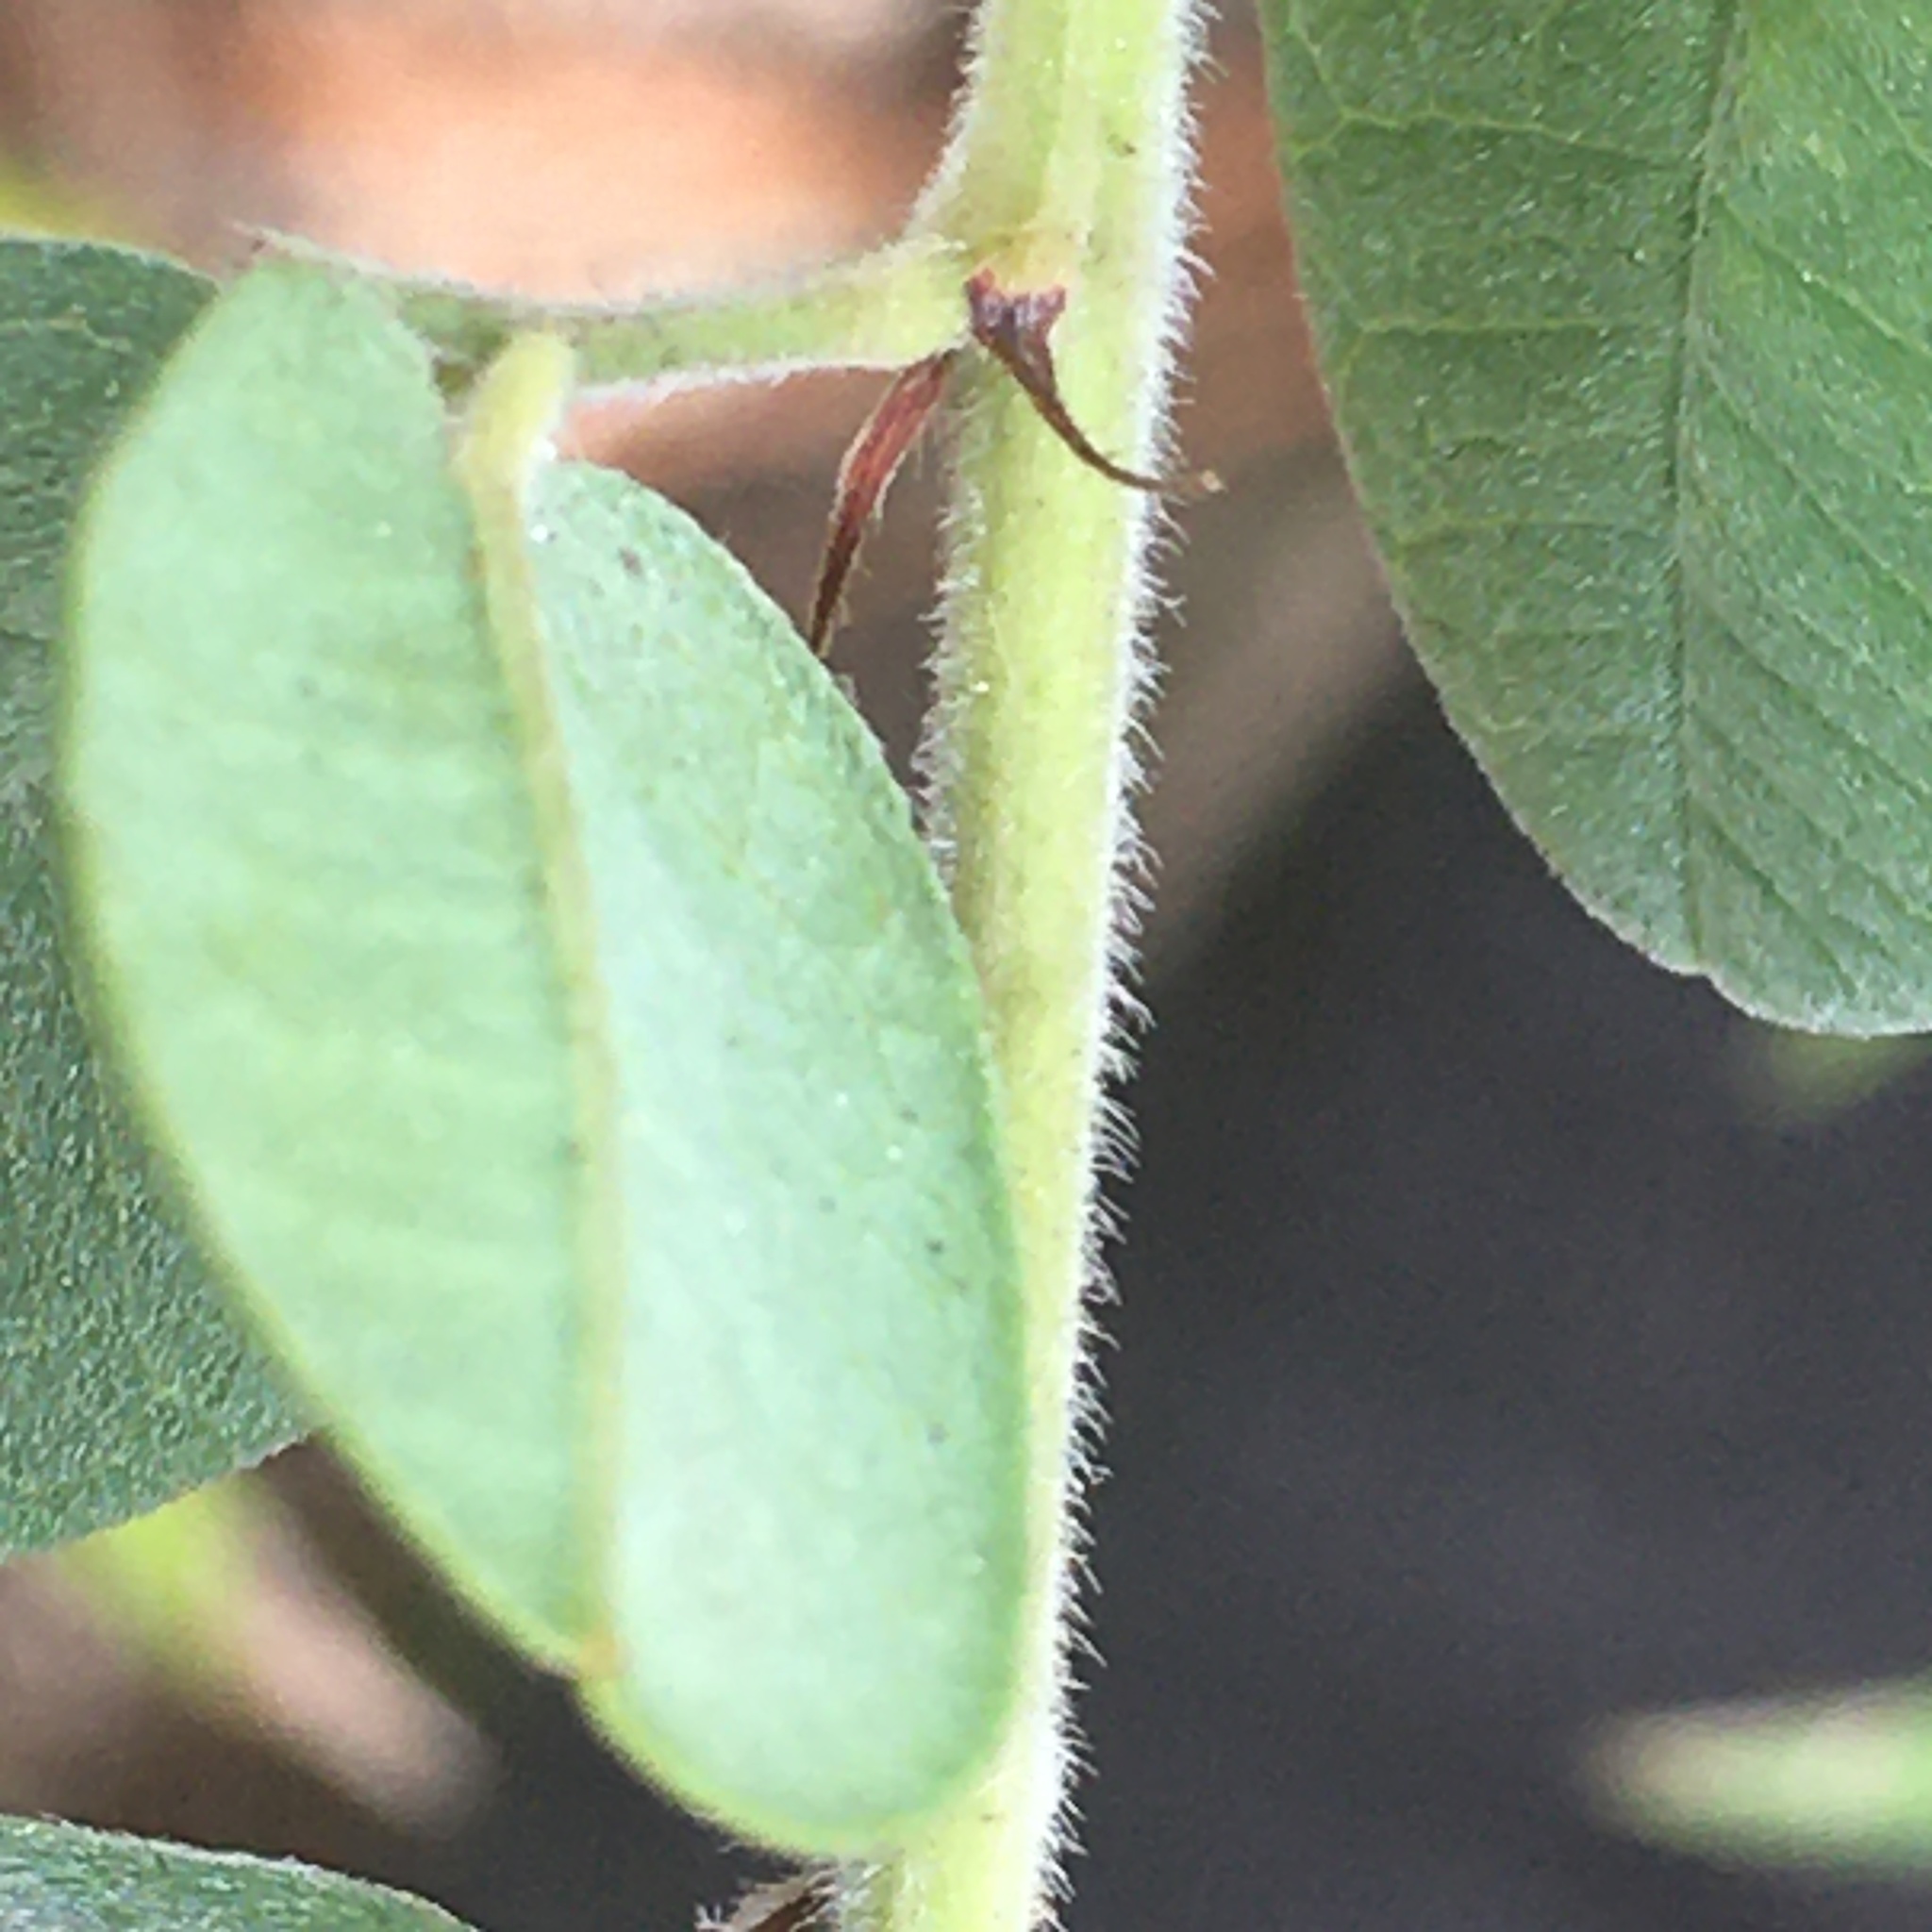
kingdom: Plantae
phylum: Tracheophyta
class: Magnoliopsida
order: Fabales
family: Fabaceae
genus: Lespedeza
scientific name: Lespedeza hirta
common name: Hairy lespedeza
